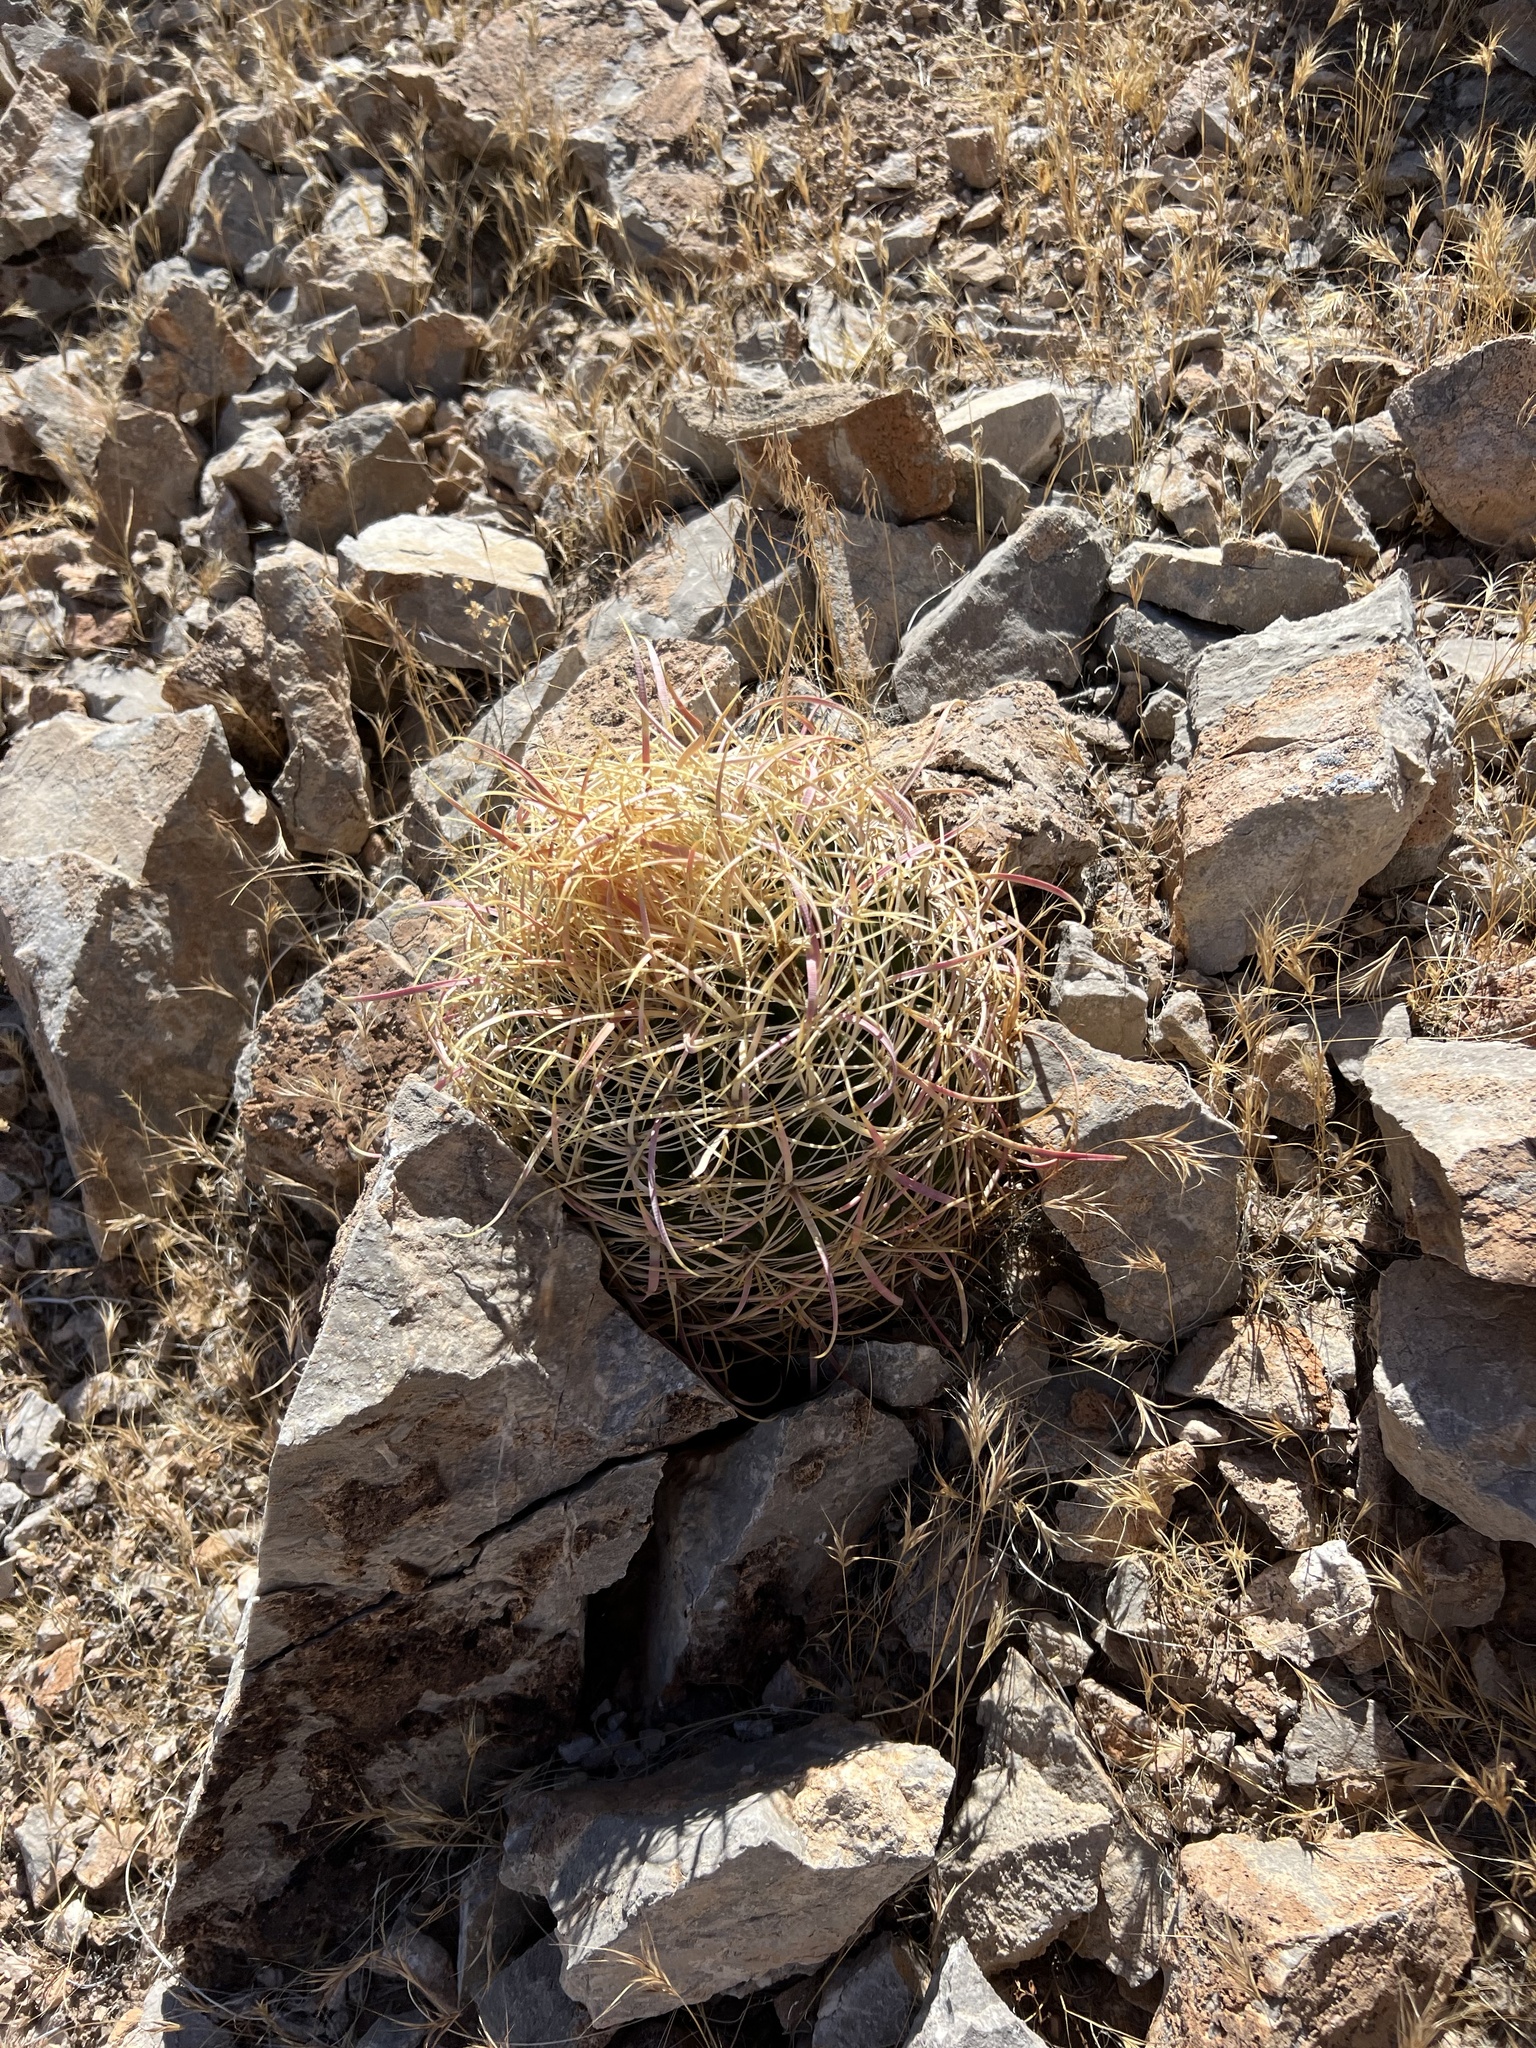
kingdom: Plantae
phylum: Tracheophyta
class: Magnoliopsida
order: Caryophyllales
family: Cactaceae
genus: Ferocactus
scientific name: Ferocactus cylindraceus
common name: California barrel cactus
